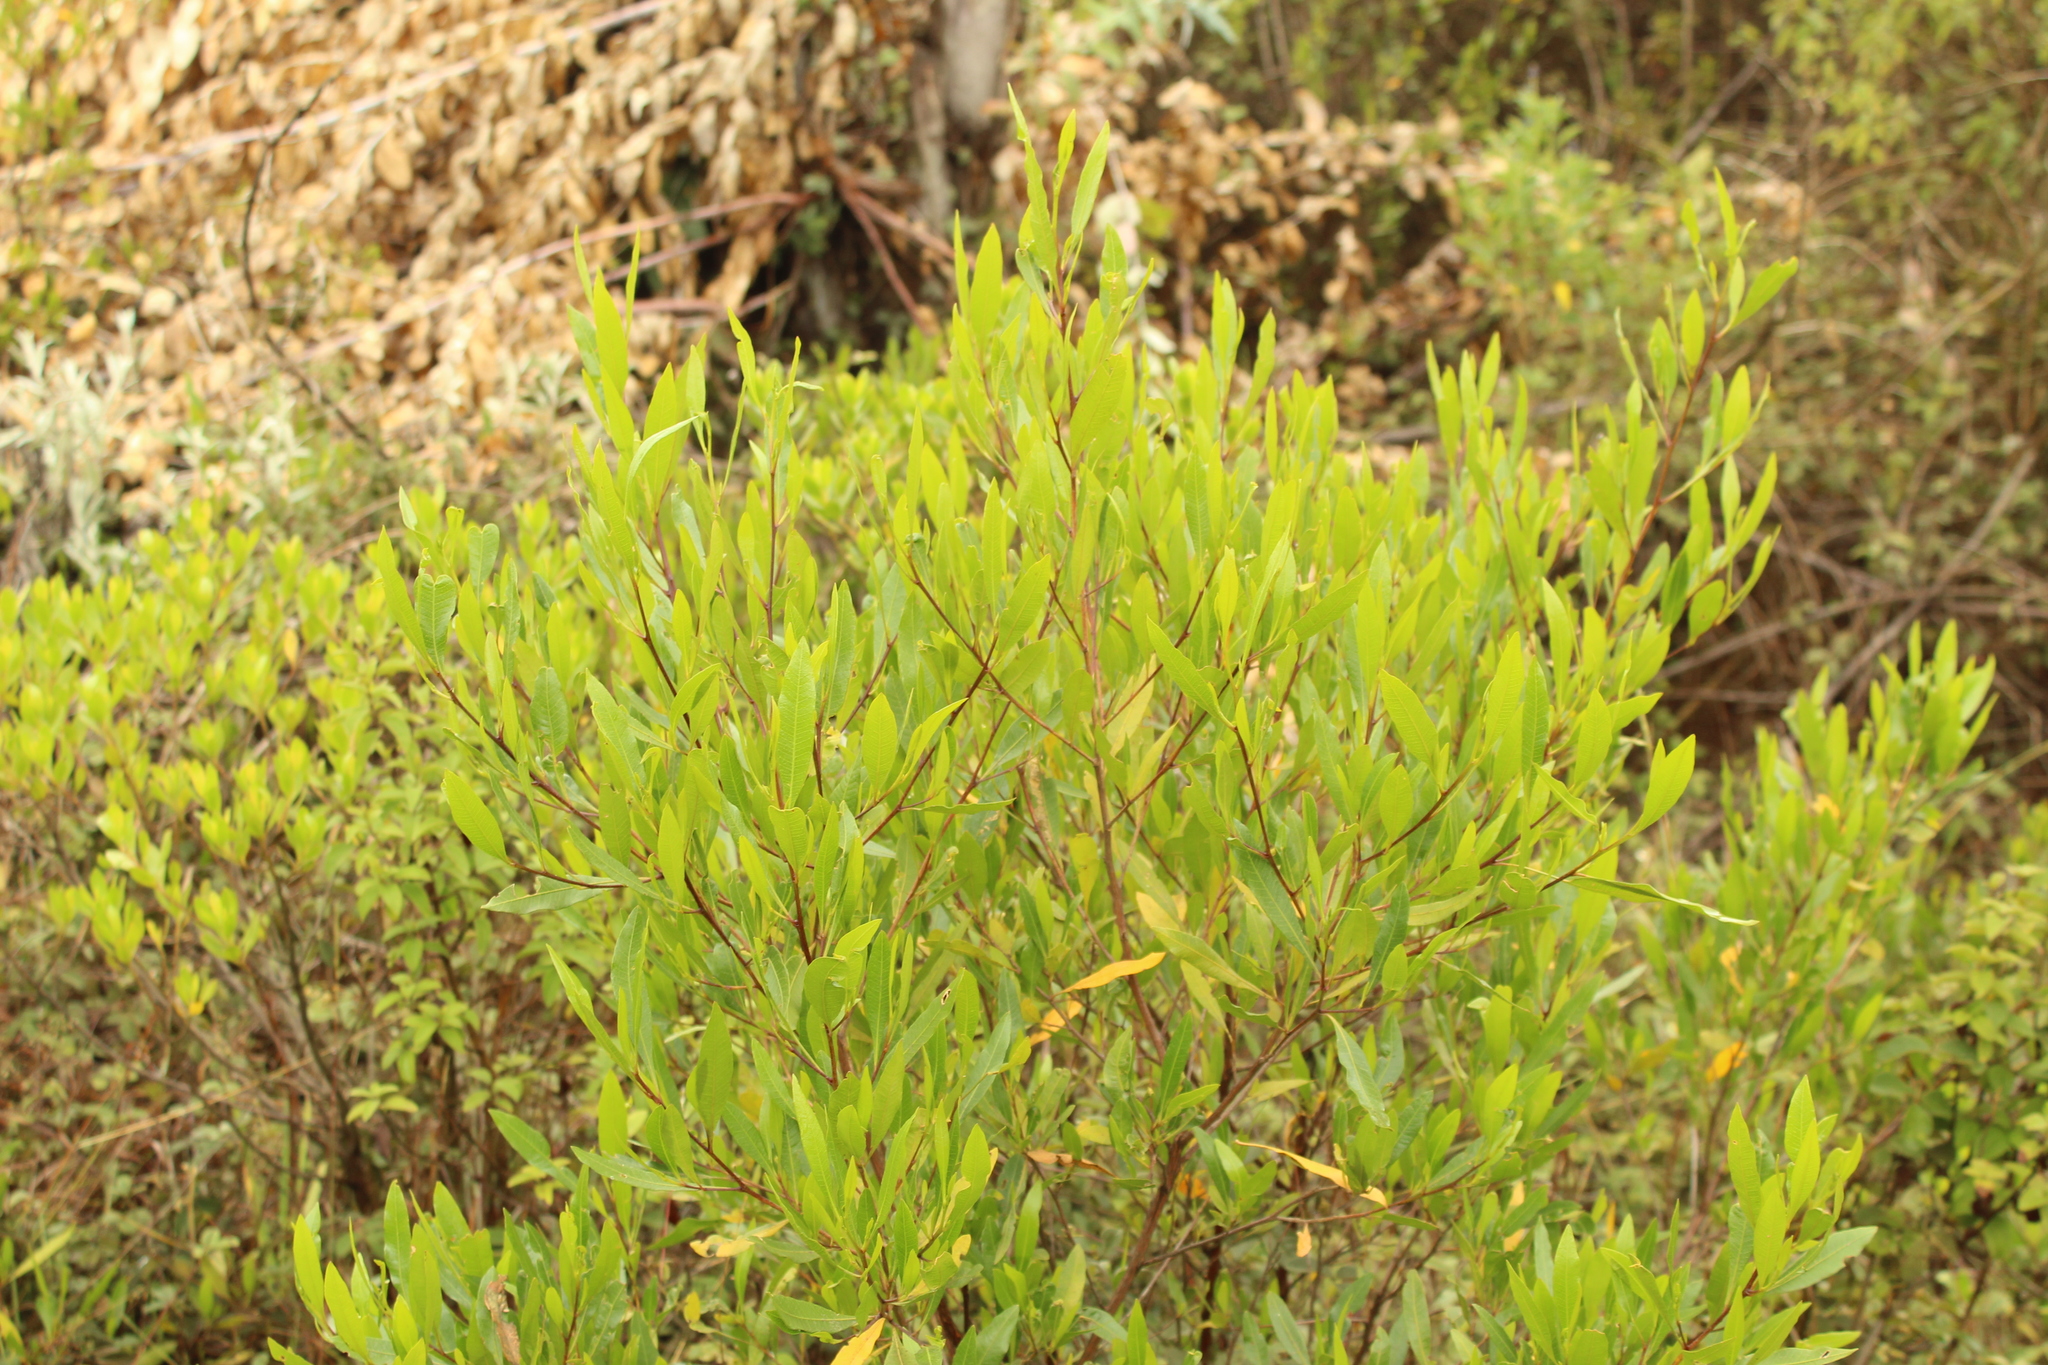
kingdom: Plantae
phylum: Tracheophyta
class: Magnoliopsida
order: Sapindales
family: Sapindaceae
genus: Dodonaea
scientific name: Dodonaea viscosa
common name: Hopbush
